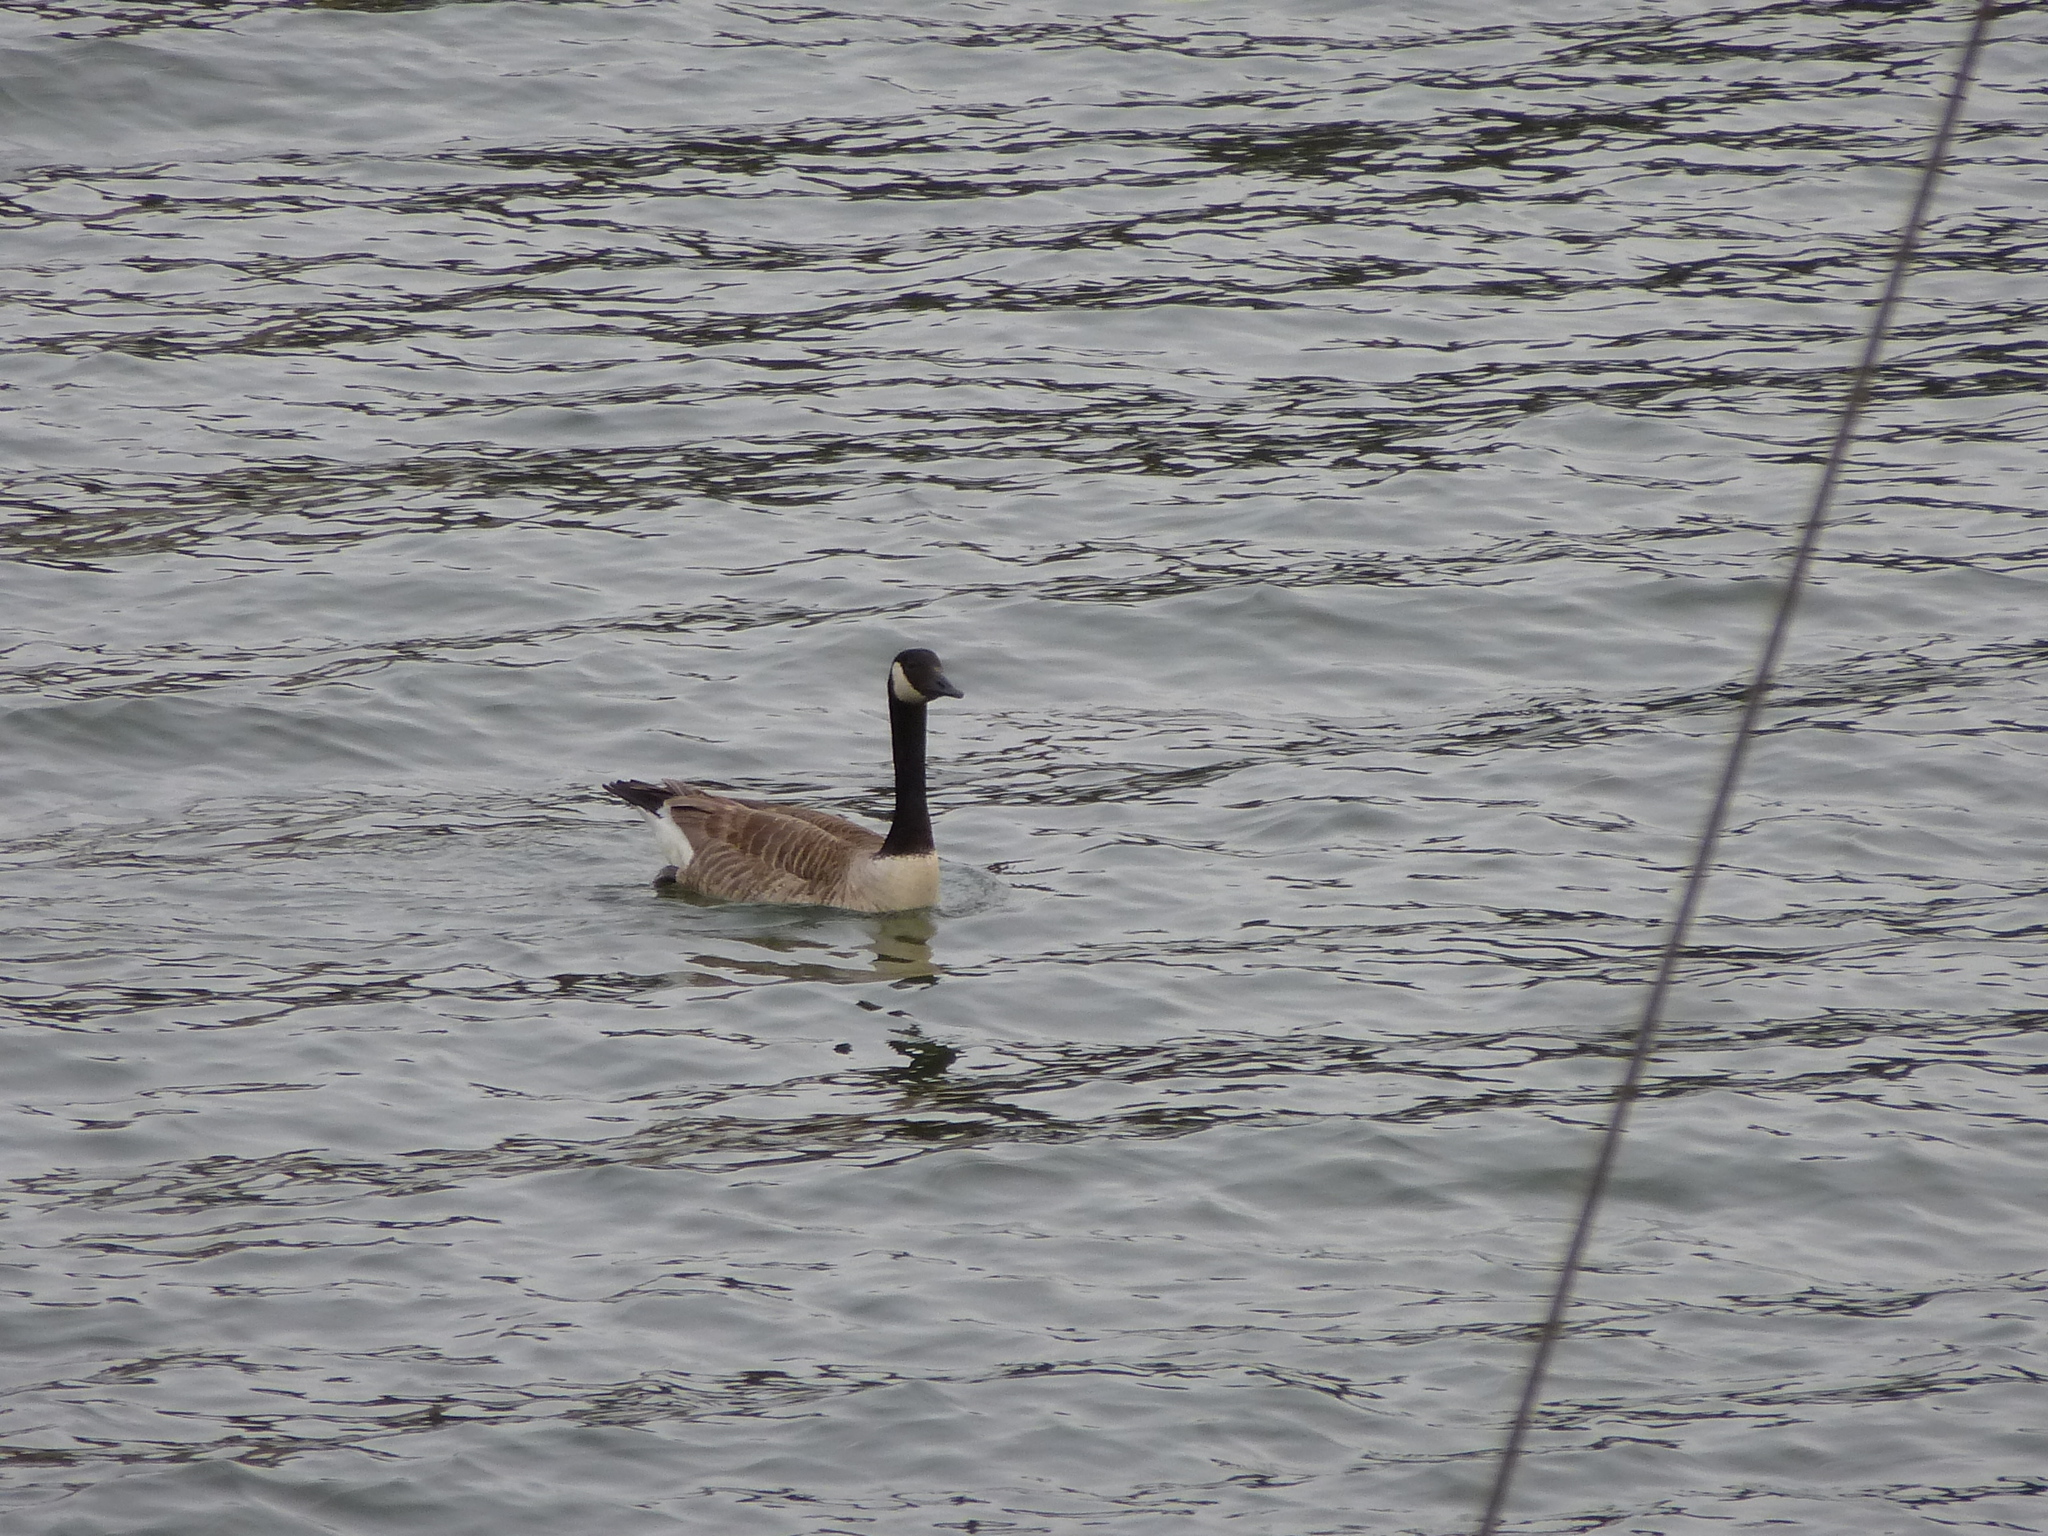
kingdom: Animalia
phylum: Chordata
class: Aves
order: Anseriformes
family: Anatidae
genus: Branta
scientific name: Branta canadensis
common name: Canada goose
